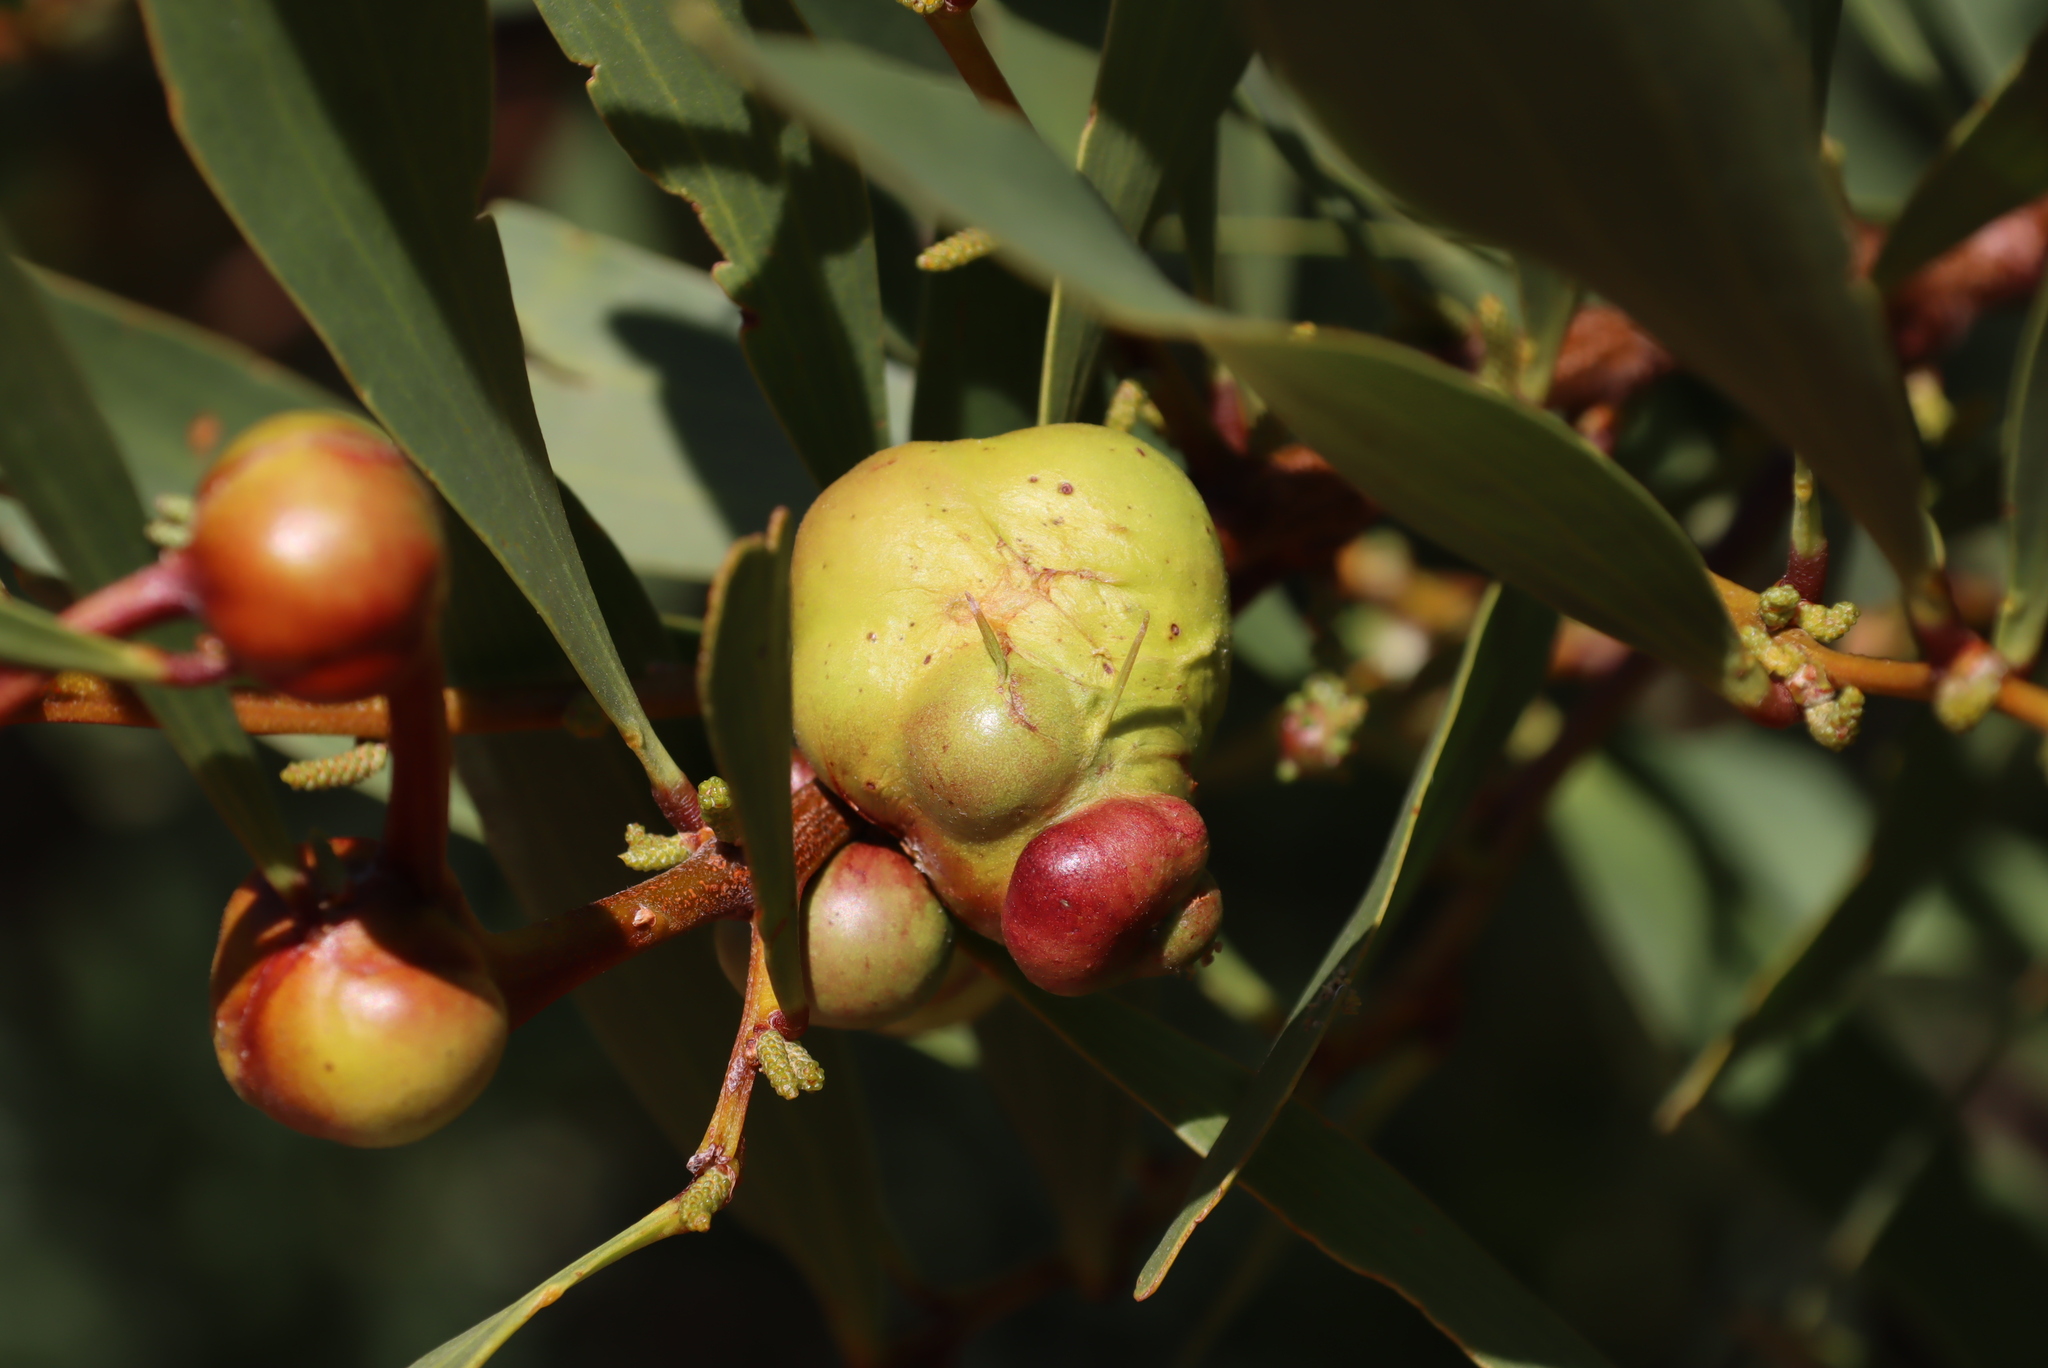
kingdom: Animalia
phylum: Arthropoda
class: Insecta
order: Hymenoptera
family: Pteromalidae
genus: Trichilogaster
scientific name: Trichilogaster acaciaelongifoliae
